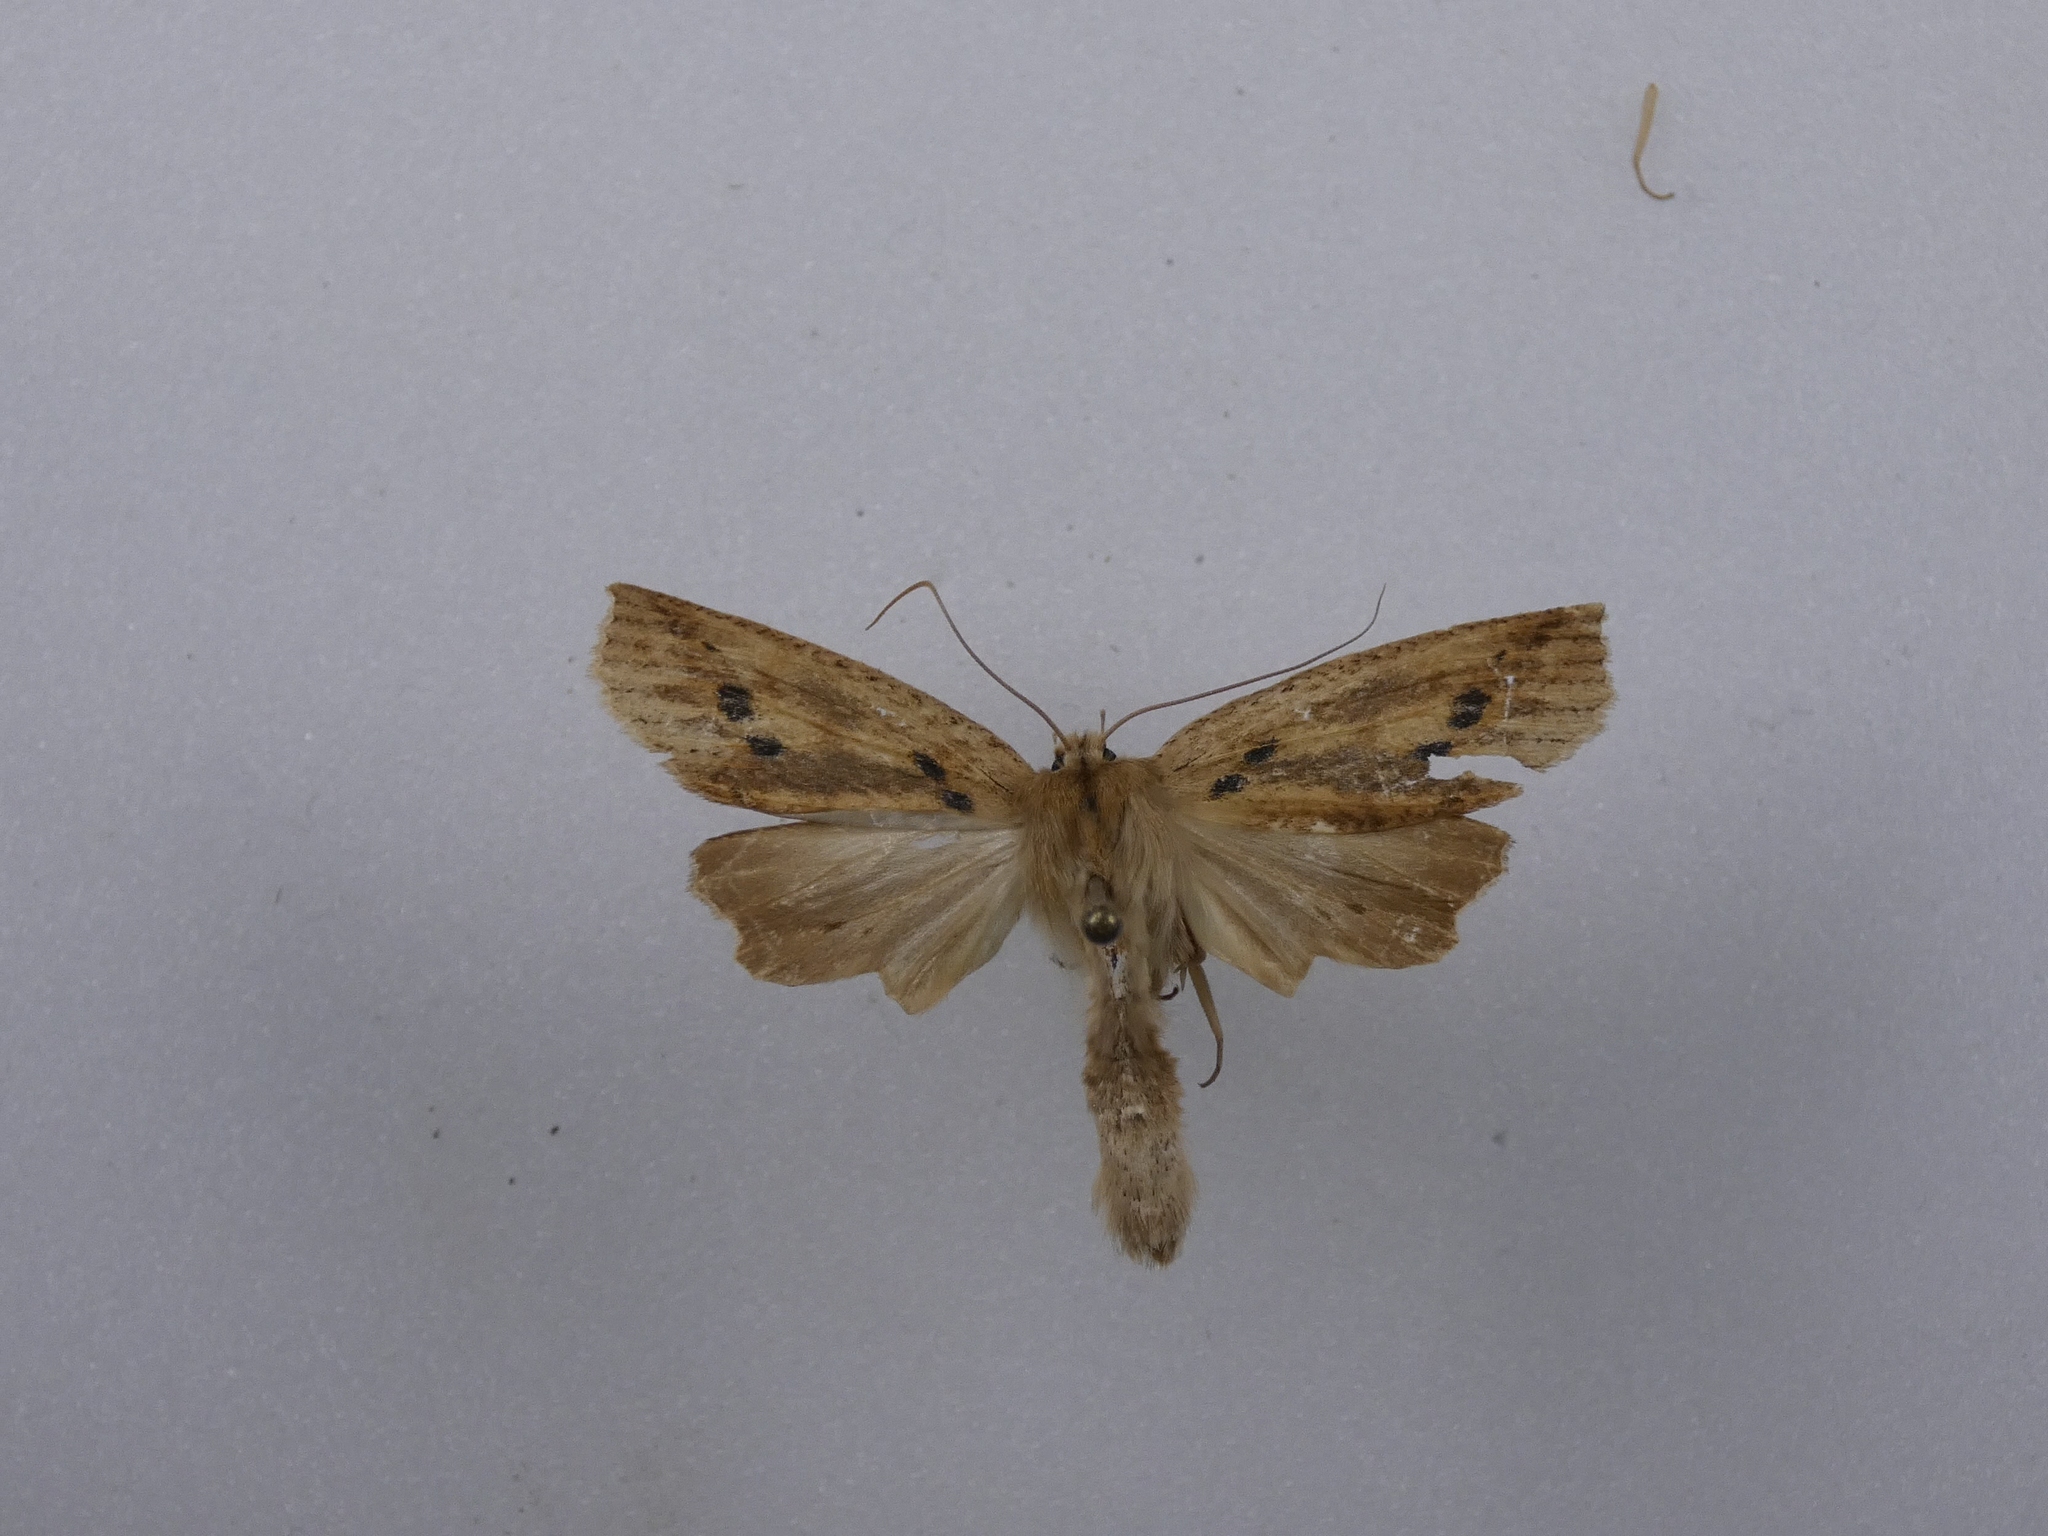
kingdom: Animalia
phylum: Arthropoda
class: Insecta
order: Lepidoptera
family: Geometridae
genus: Declana
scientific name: Declana leptomera
